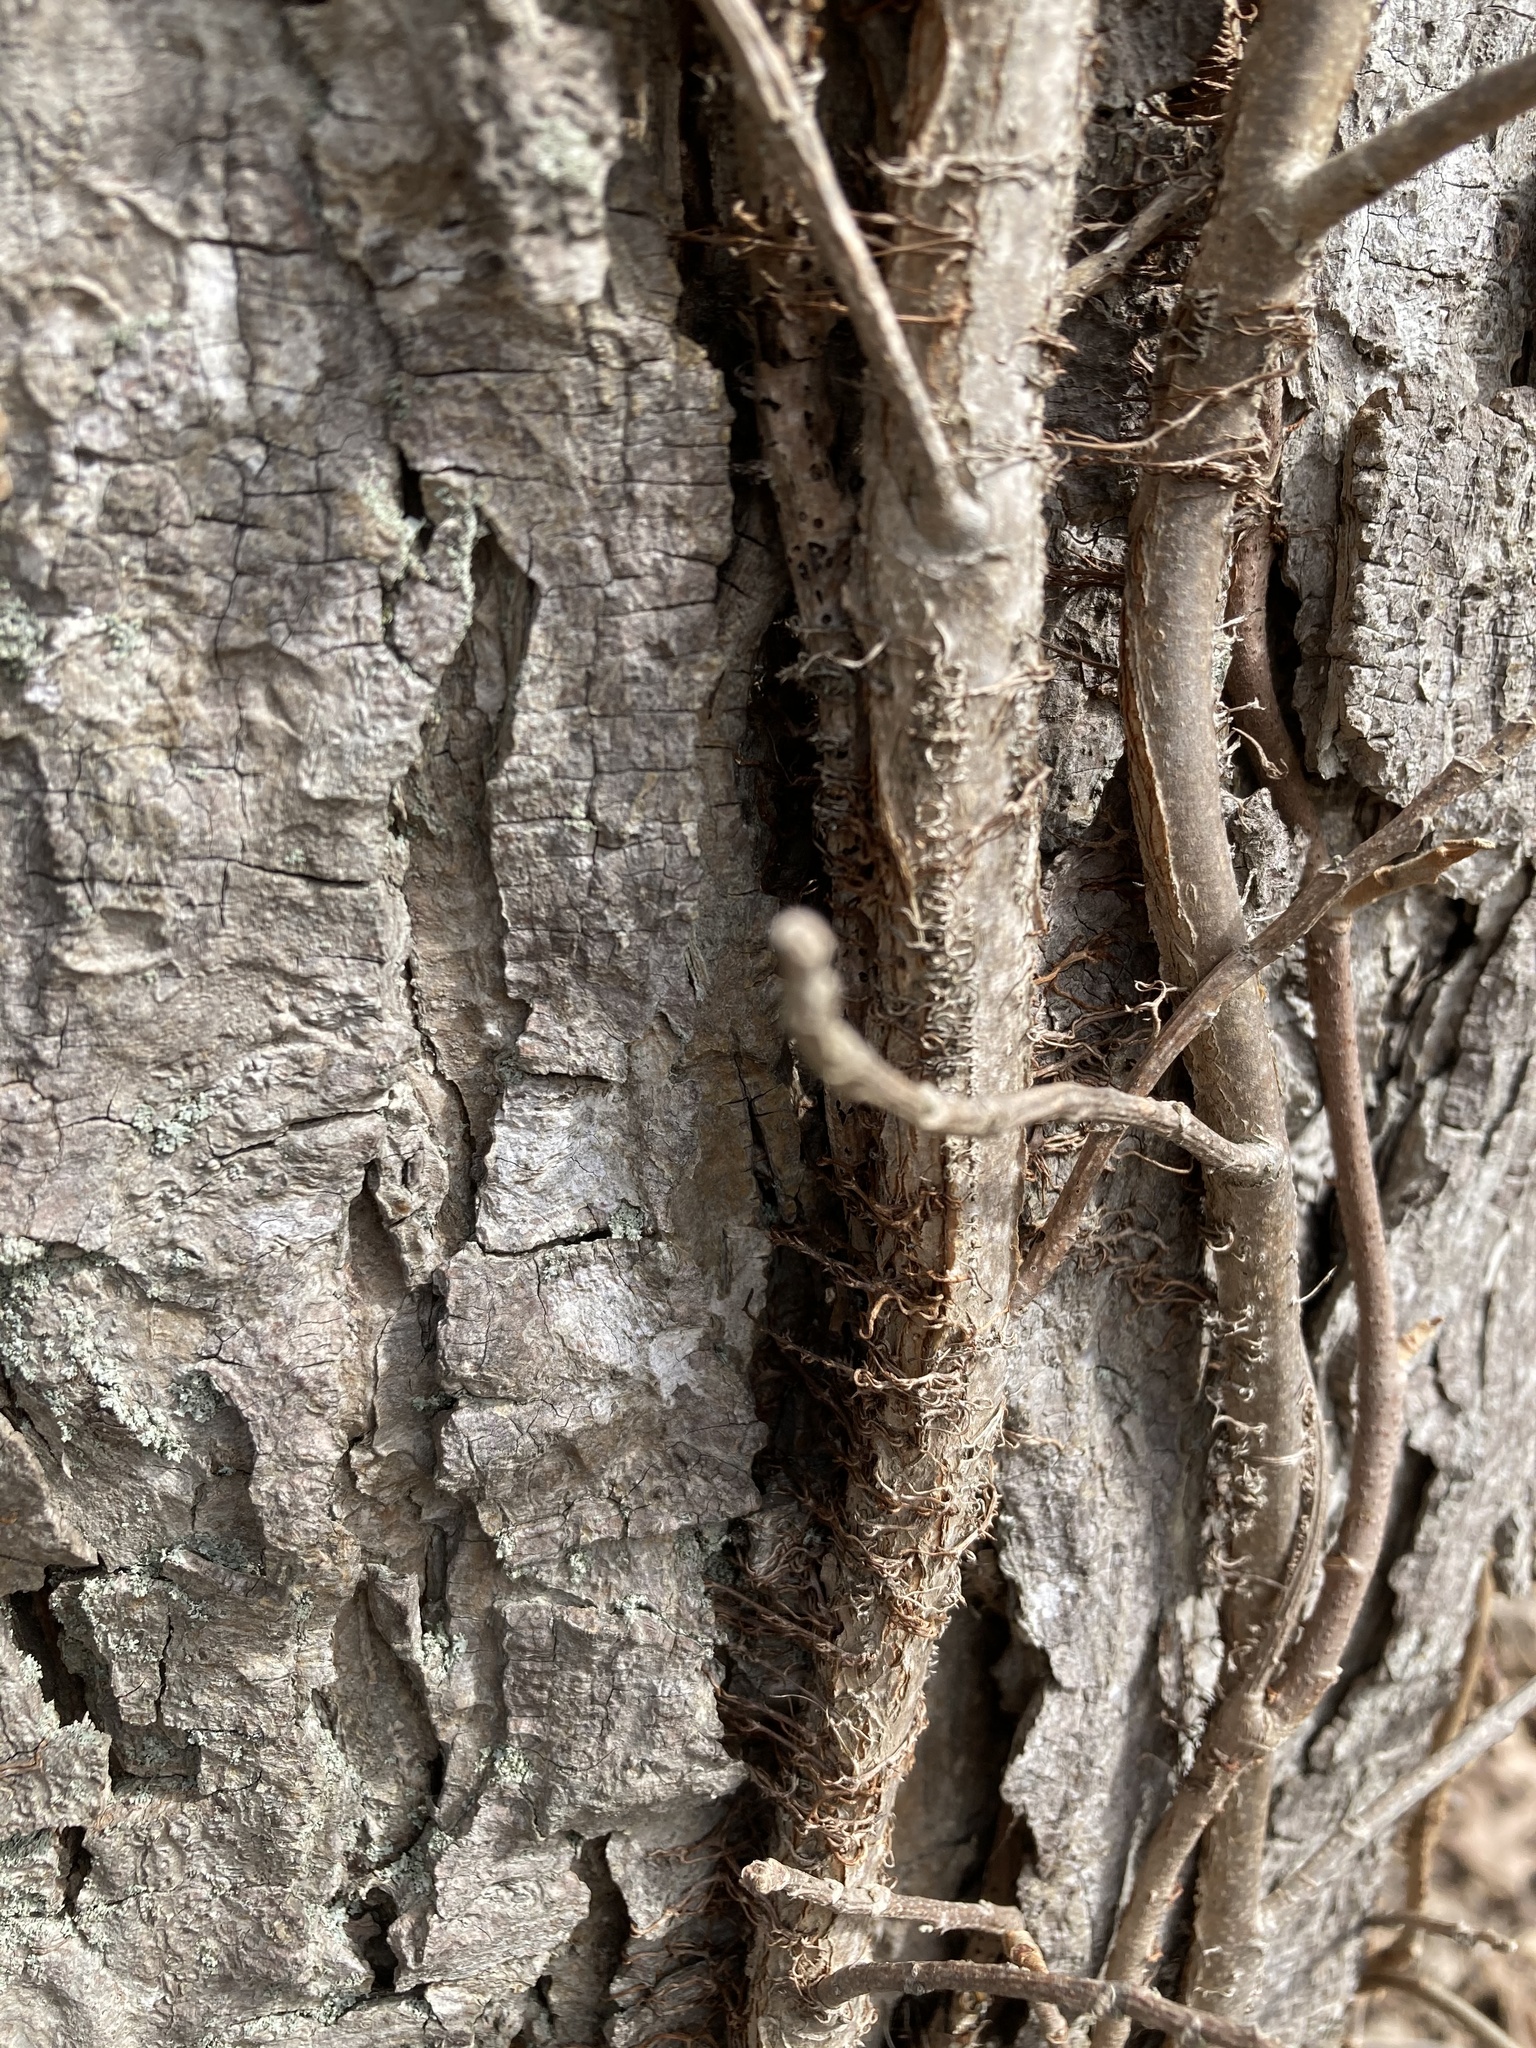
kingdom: Plantae
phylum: Tracheophyta
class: Magnoliopsida
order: Sapindales
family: Anacardiaceae
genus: Toxicodendron
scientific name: Toxicodendron radicans
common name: Poison ivy
